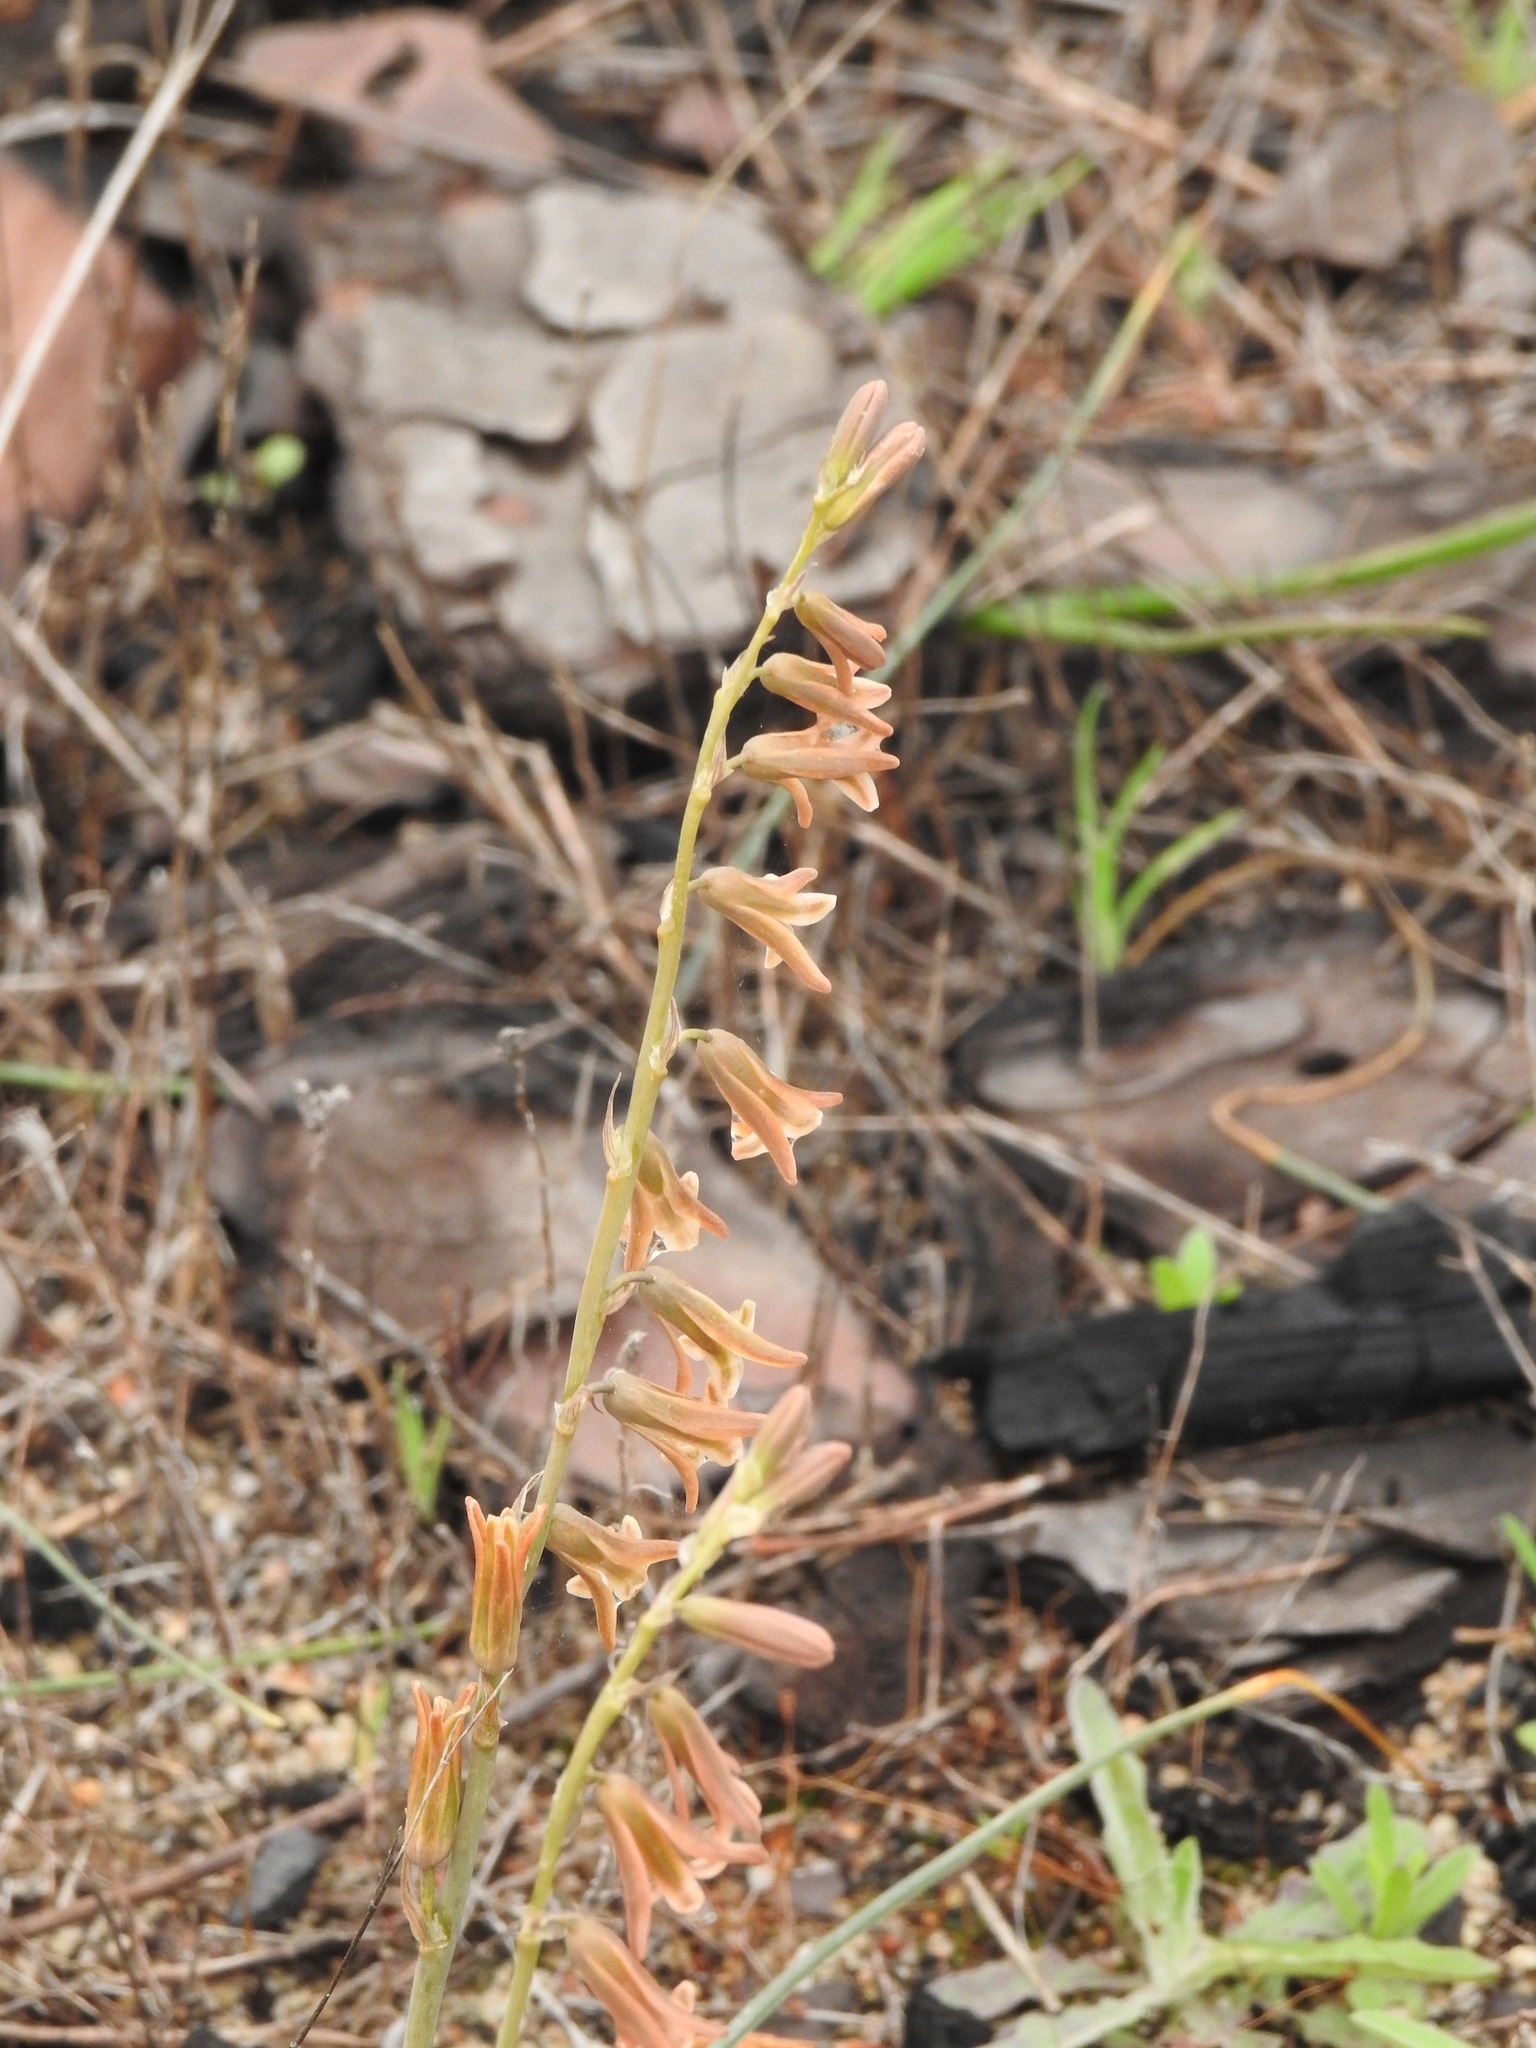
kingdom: Plantae
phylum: Tracheophyta
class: Liliopsida
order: Asparagales
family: Asparagaceae
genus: Dipcadi
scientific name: Dipcadi serotinum
